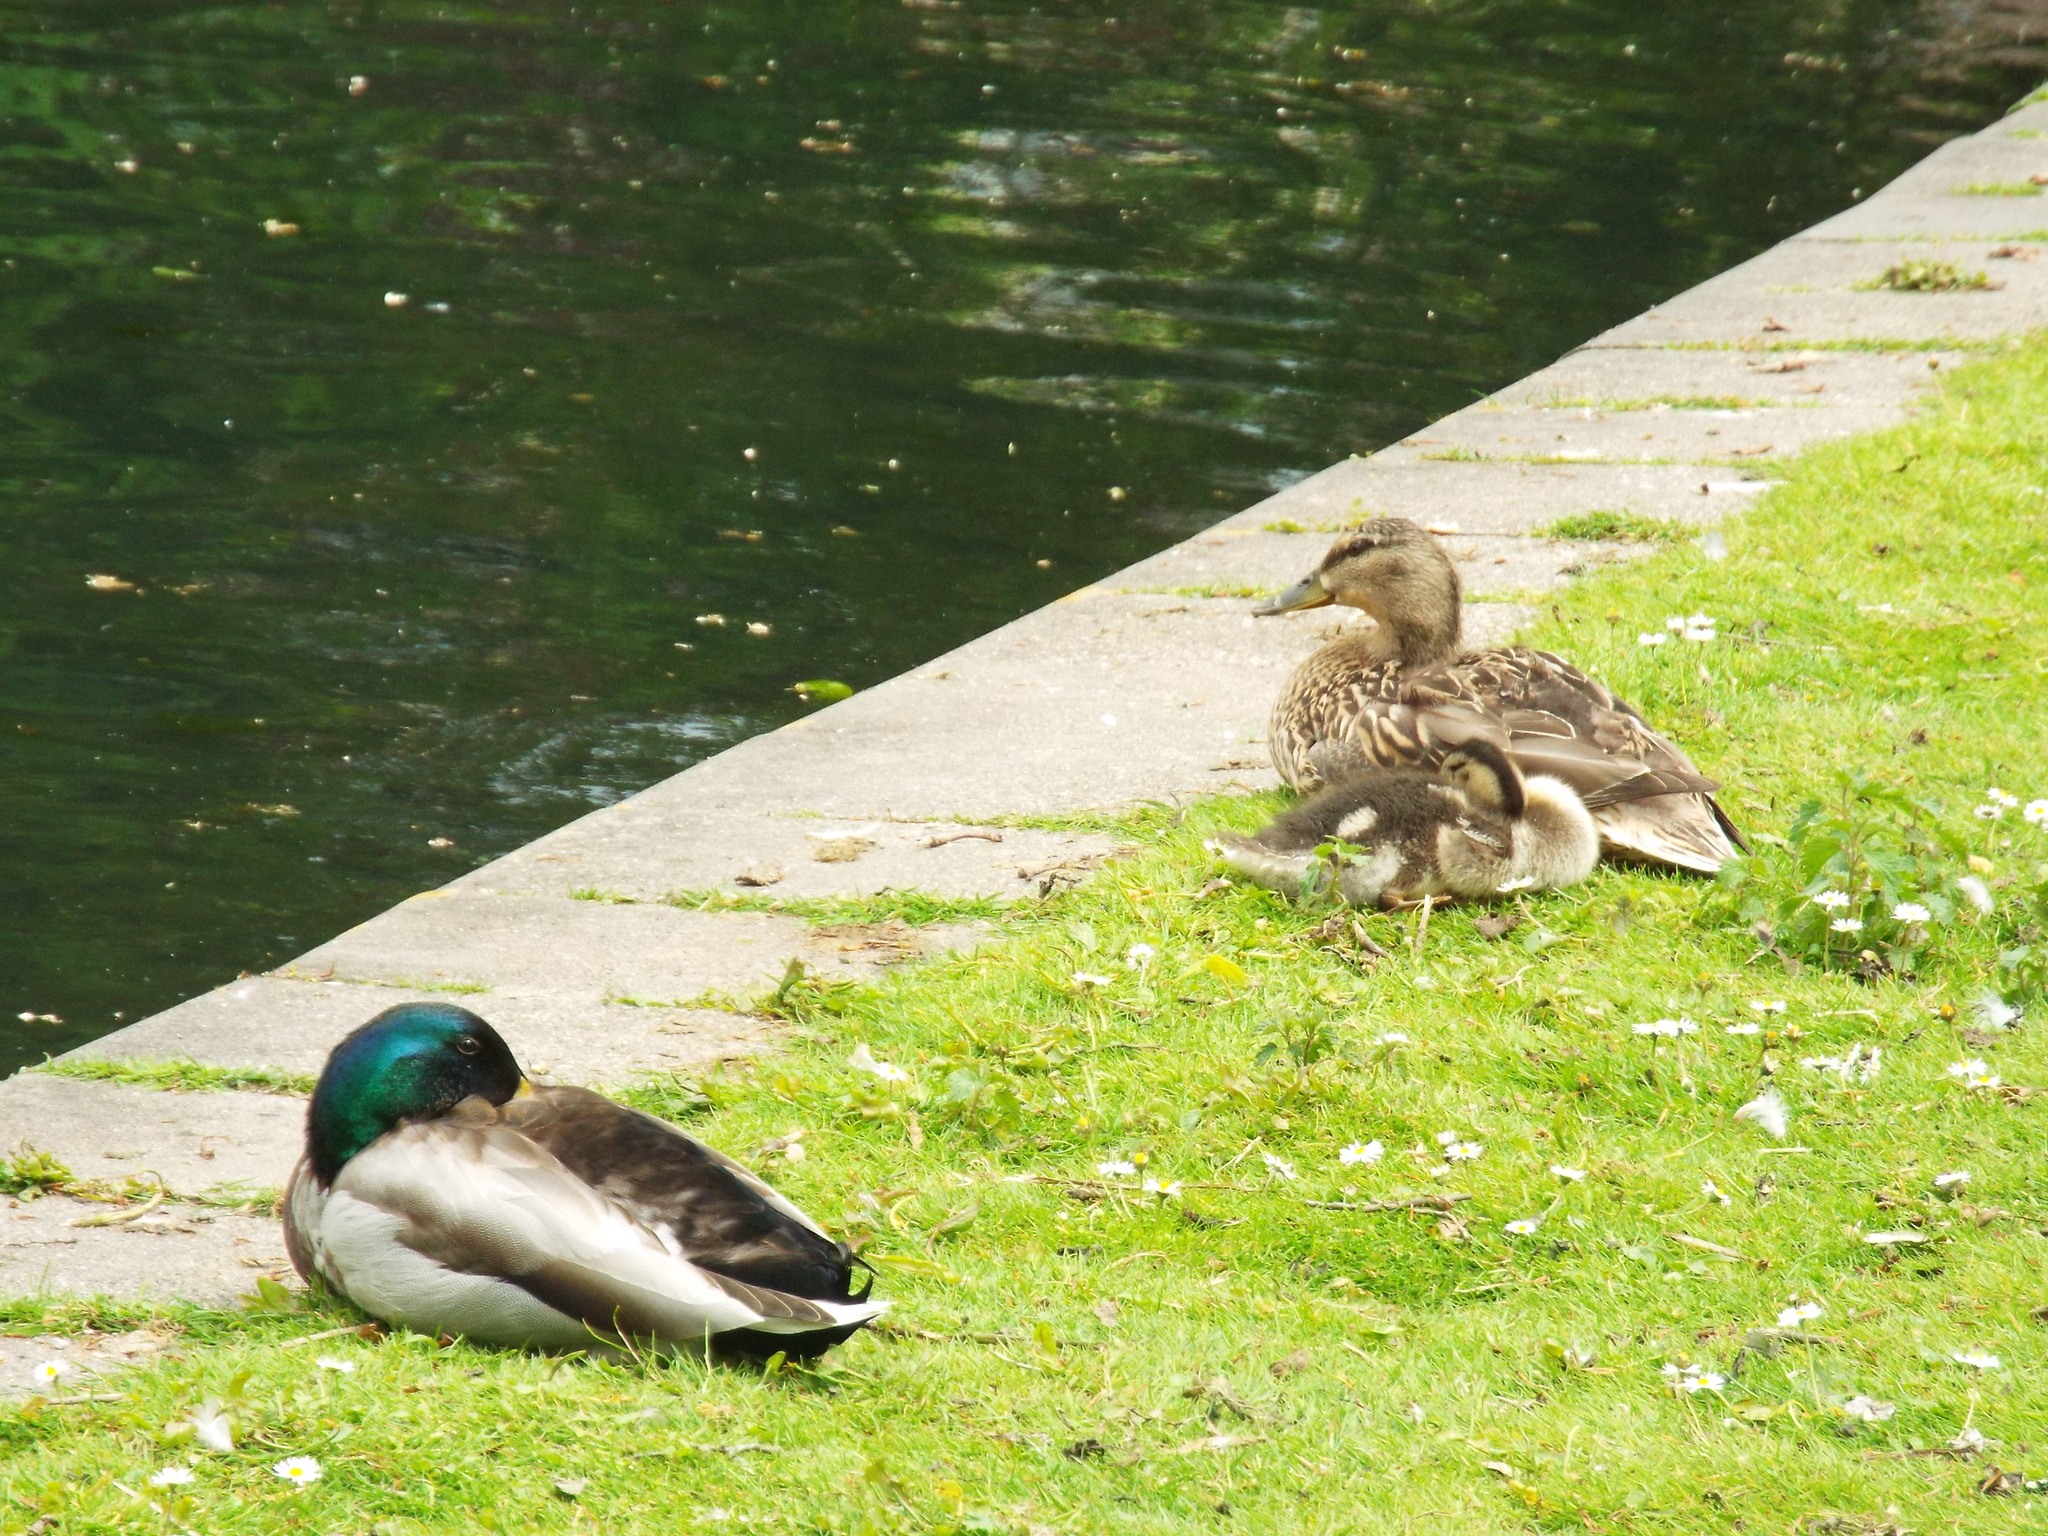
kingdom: Animalia
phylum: Chordata
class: Aves
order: Anseriformes
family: Anatidae
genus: Anas
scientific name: Anas platyrhynchos
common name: Mallard
